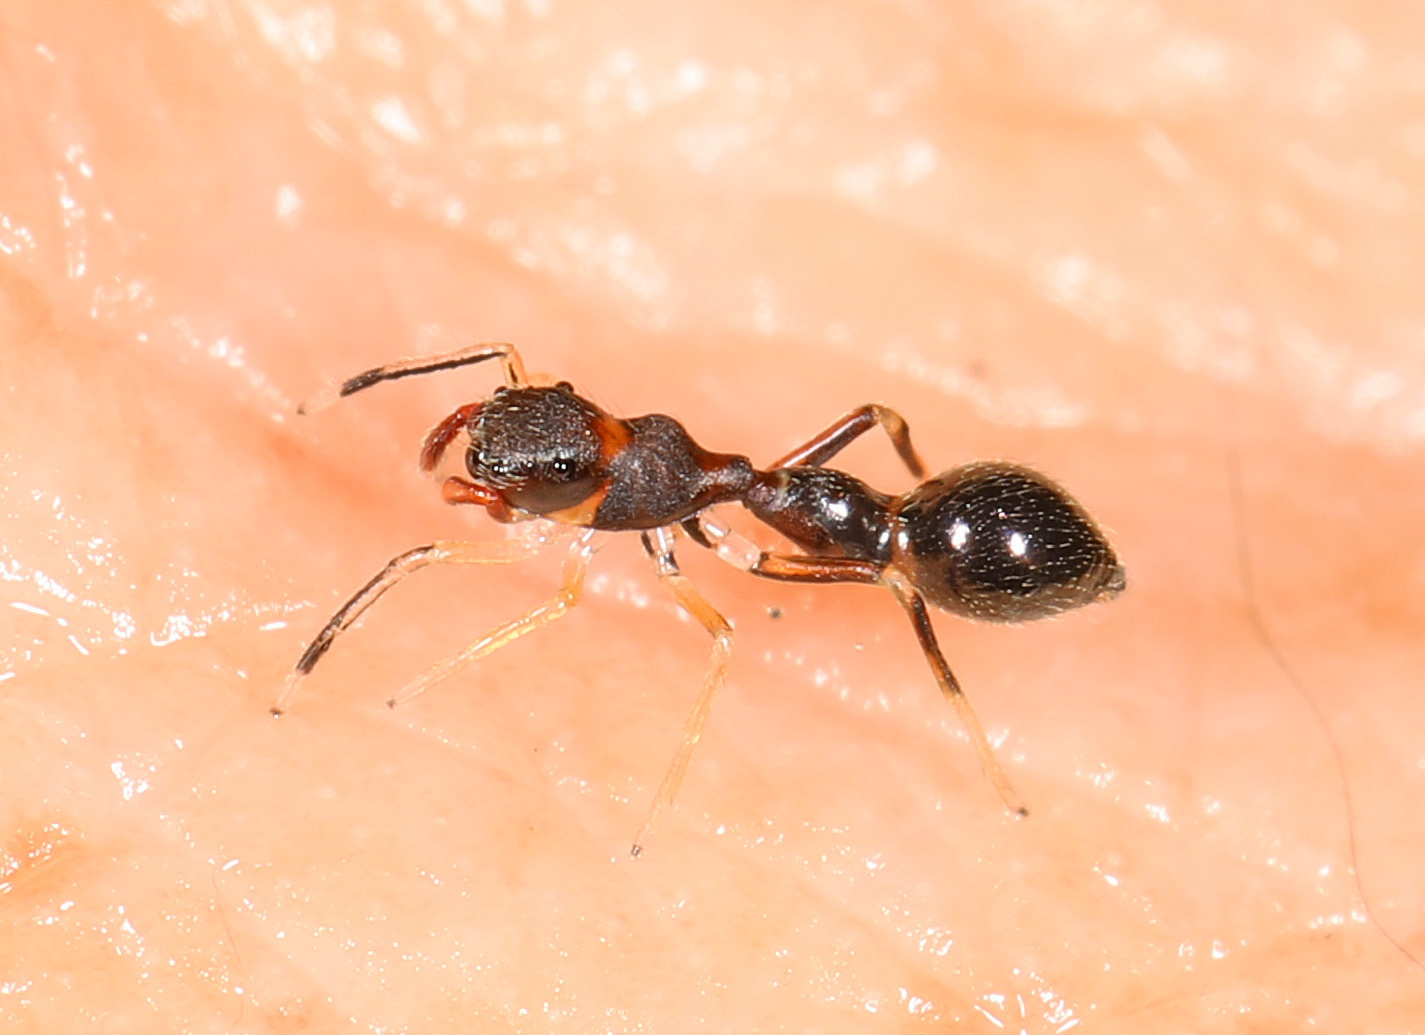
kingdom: Animalia
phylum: Arthropoda
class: Arachnida
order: Araneae
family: Salticidae
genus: Synemosyna
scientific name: Synemosyna formica
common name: Slender ant-mimic jumping spider
